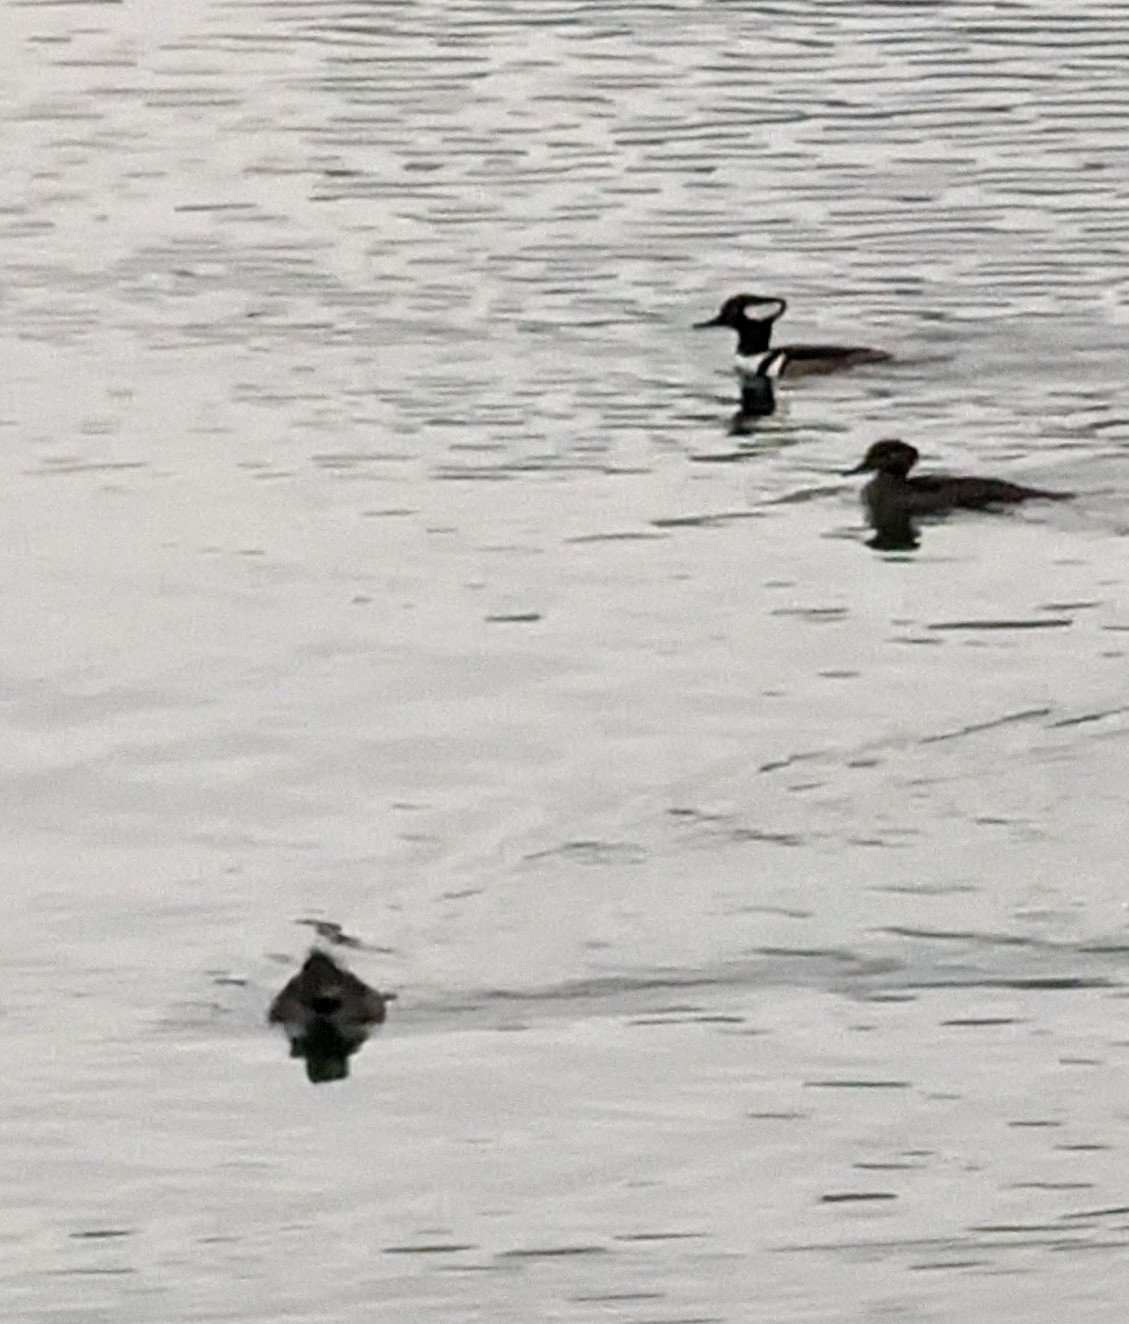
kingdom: Animalia
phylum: Chordata
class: Aves
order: Anseriformes
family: Anatidae
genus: Lophodytes
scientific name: Lophodytes cucullatus
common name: Hooded merganser
